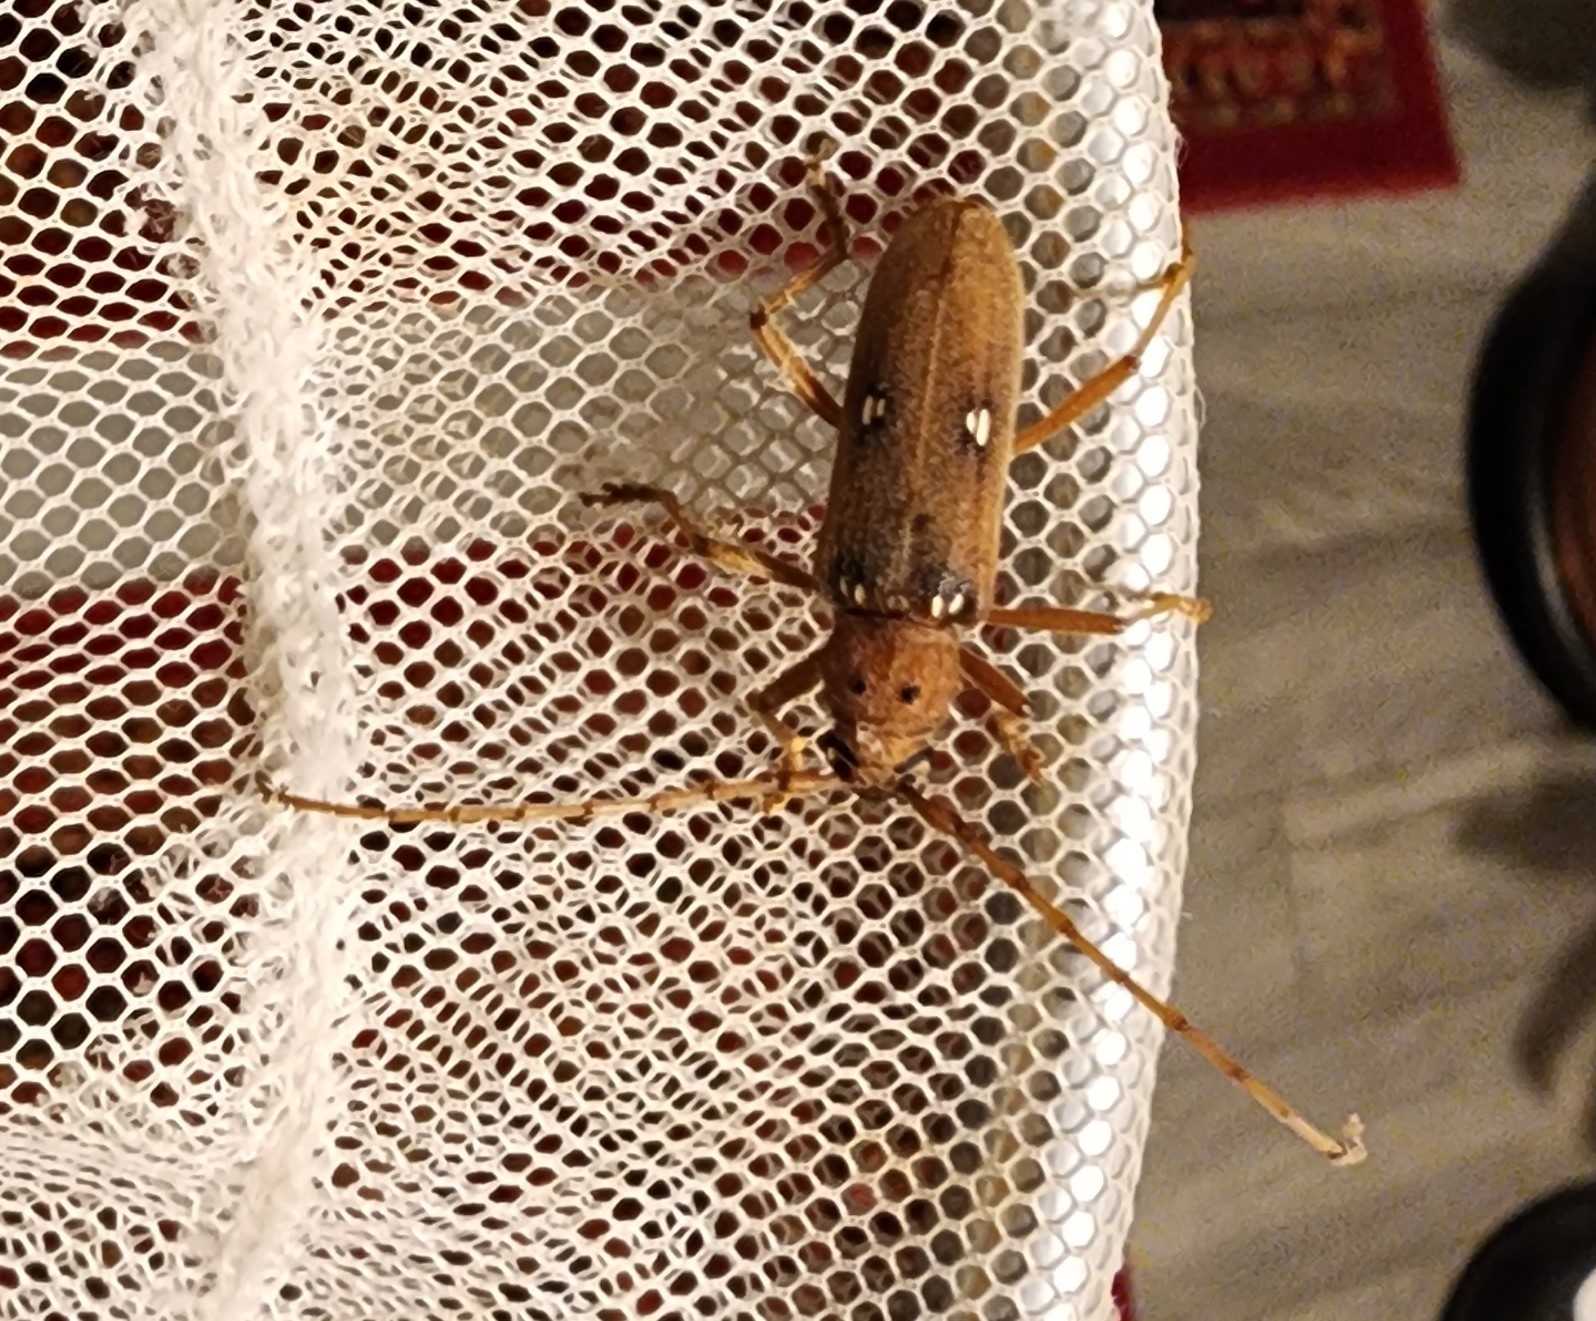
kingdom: Animalia
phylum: Arthropoda
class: Insecta
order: Coleoptera
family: Cerambycidae
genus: Eburia
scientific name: Eburia haldemani
